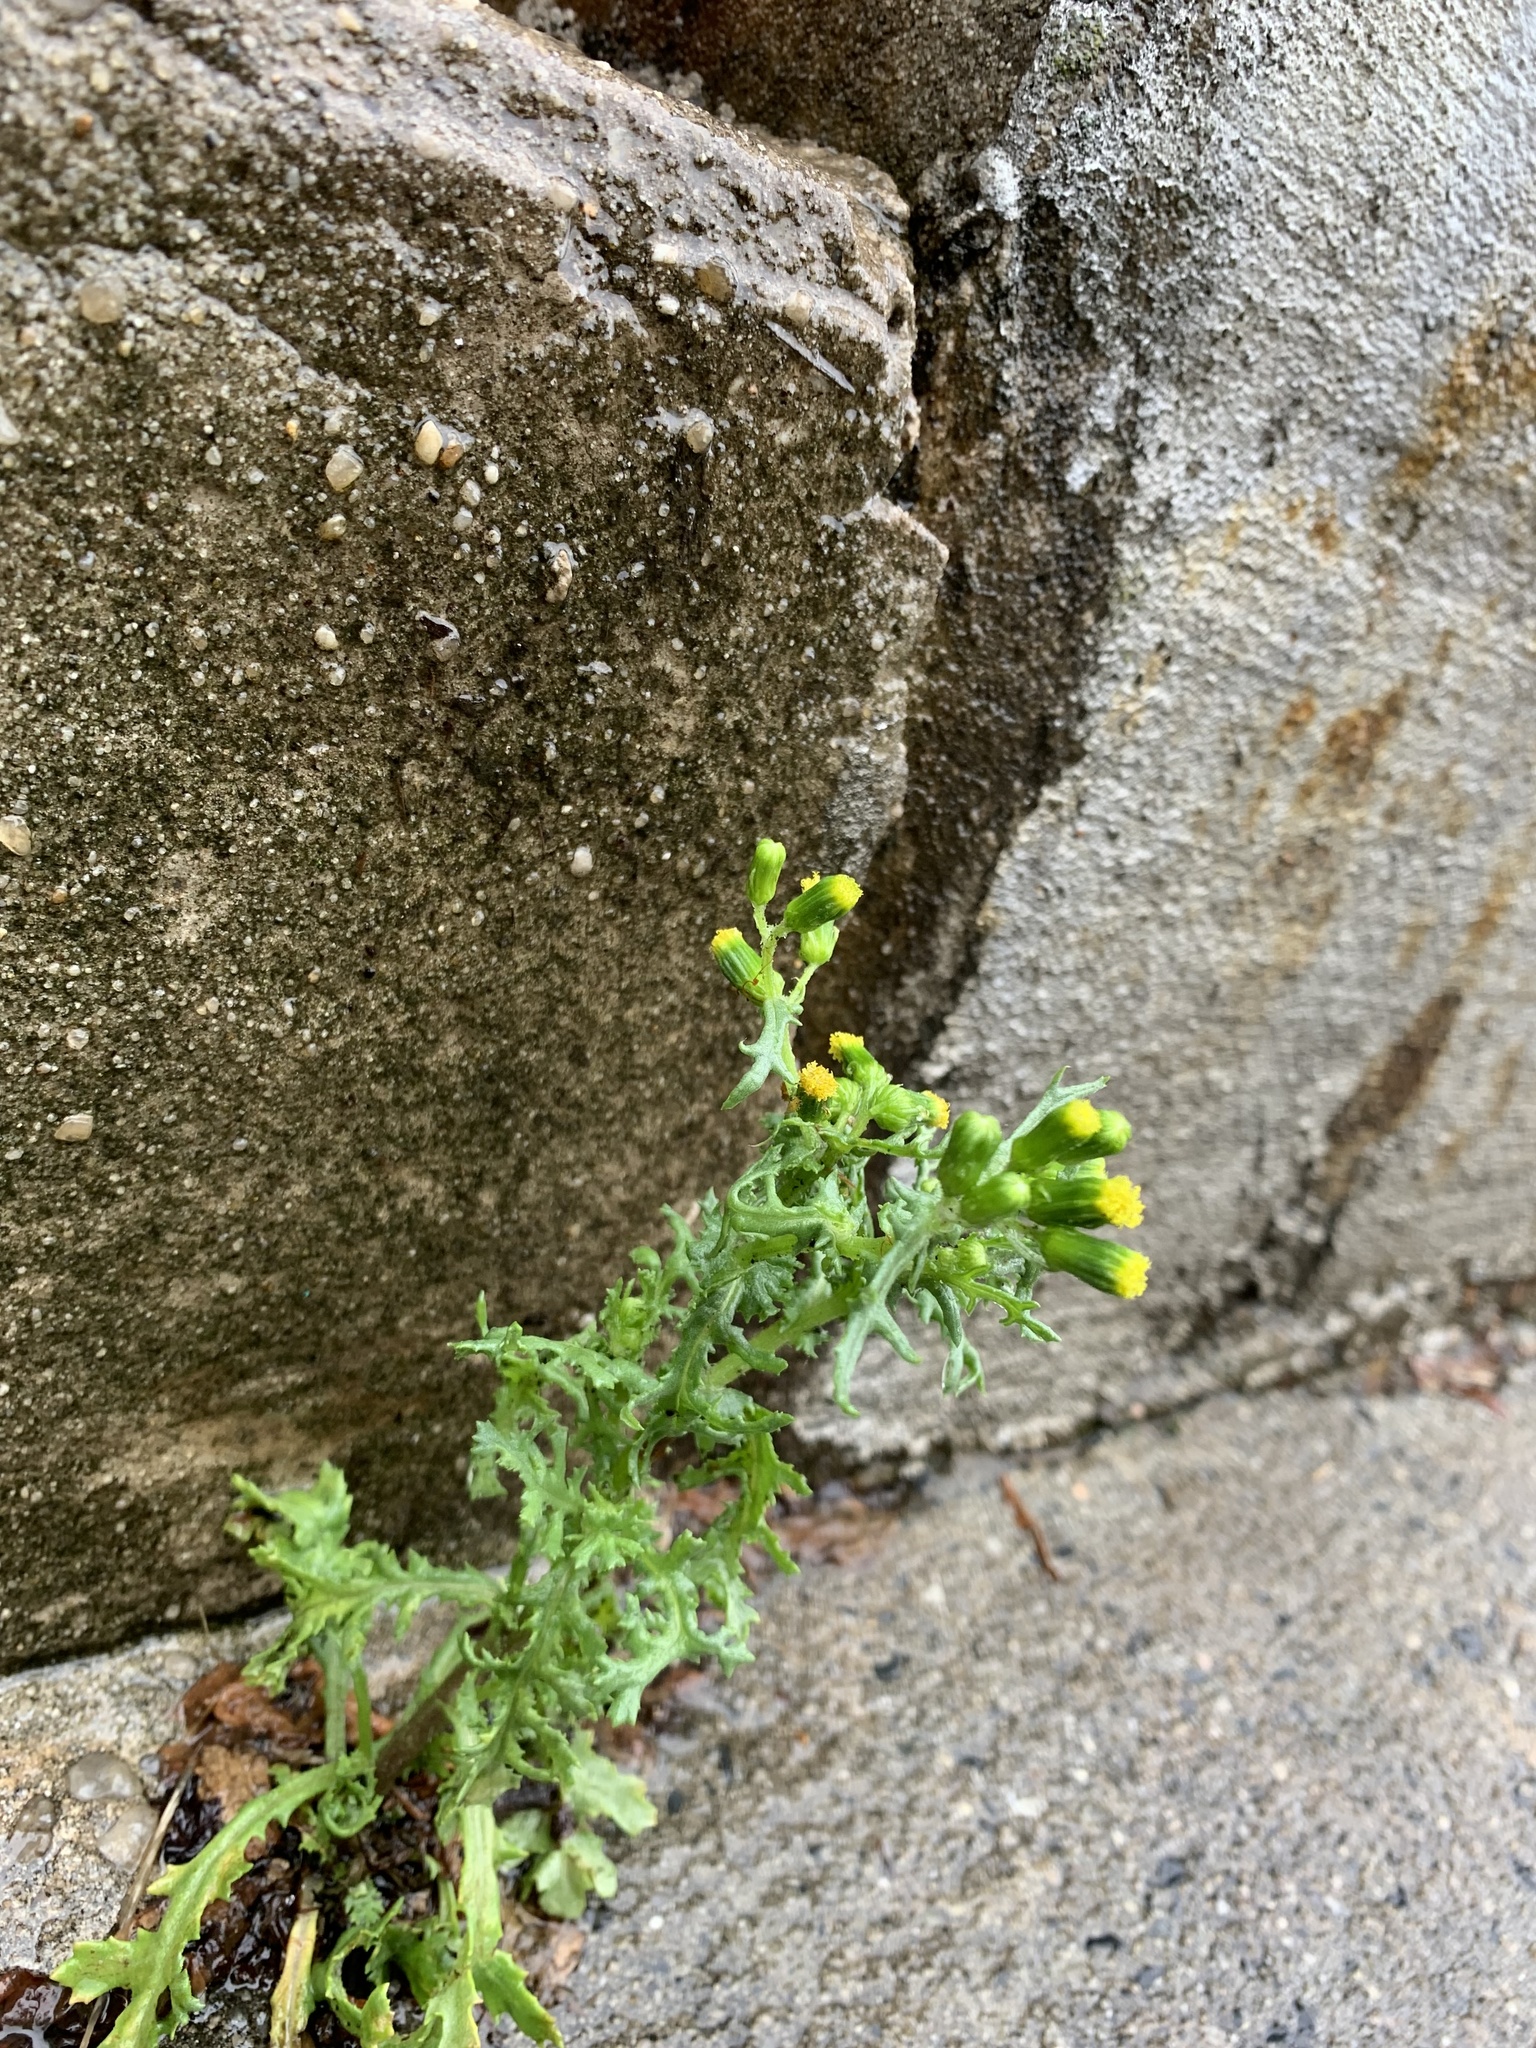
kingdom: Plantae
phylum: Tracheophyta
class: Magnoliopsida
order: Asterales
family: Asteraceae
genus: Senecio
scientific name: Senecio vulgaris
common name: Old-man-in-the-spring
